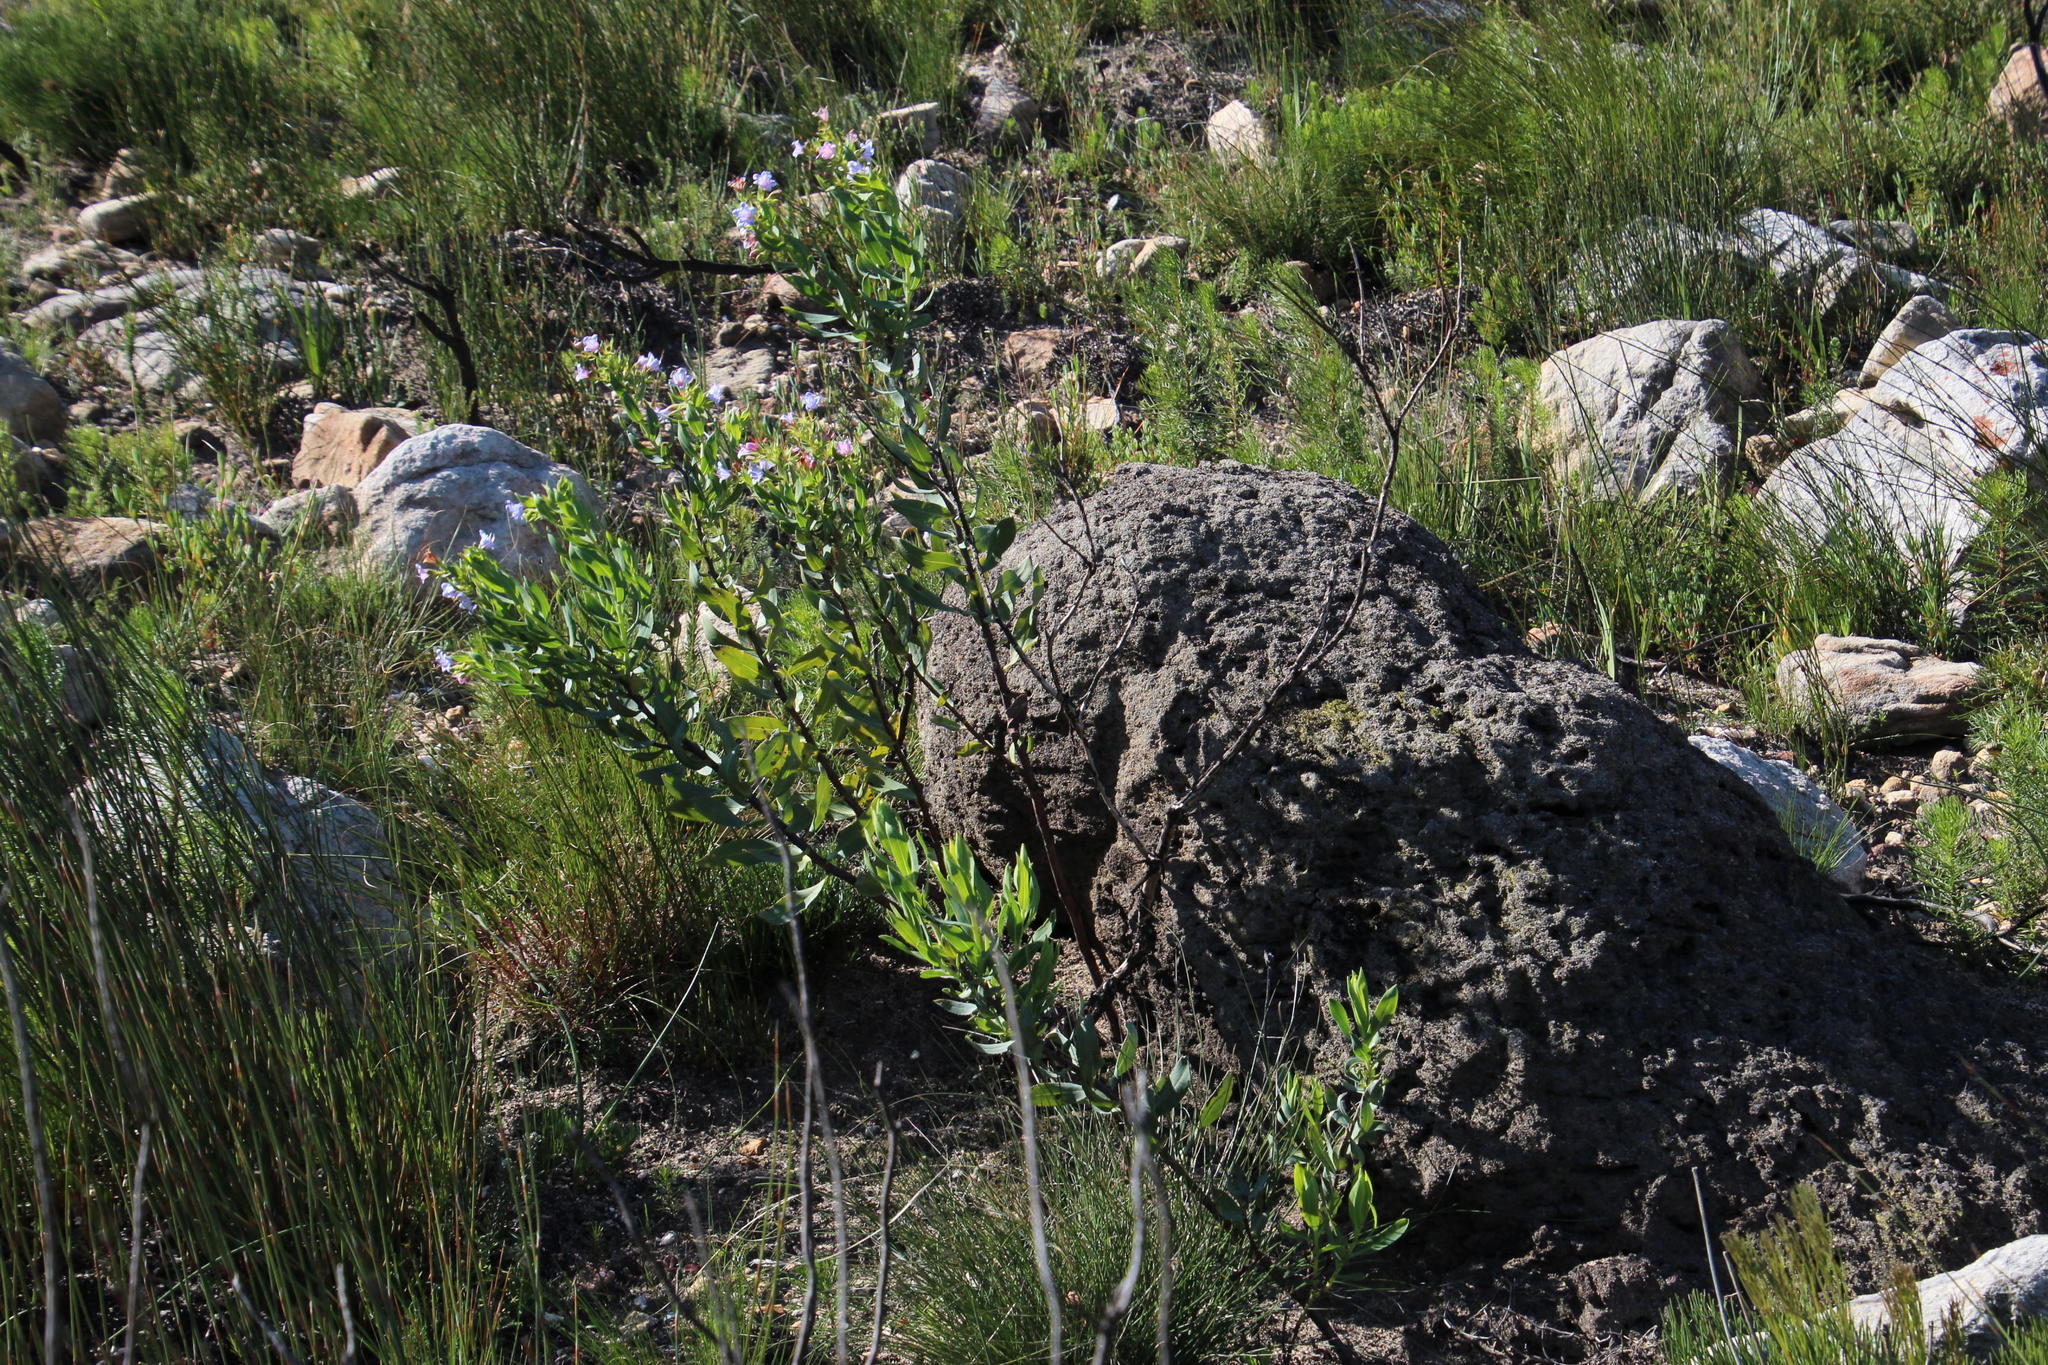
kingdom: Animalia
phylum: Arthropoda
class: Insecta
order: Blattodea
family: Termitidae
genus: Amitermes
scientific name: Amitermes hastatus
